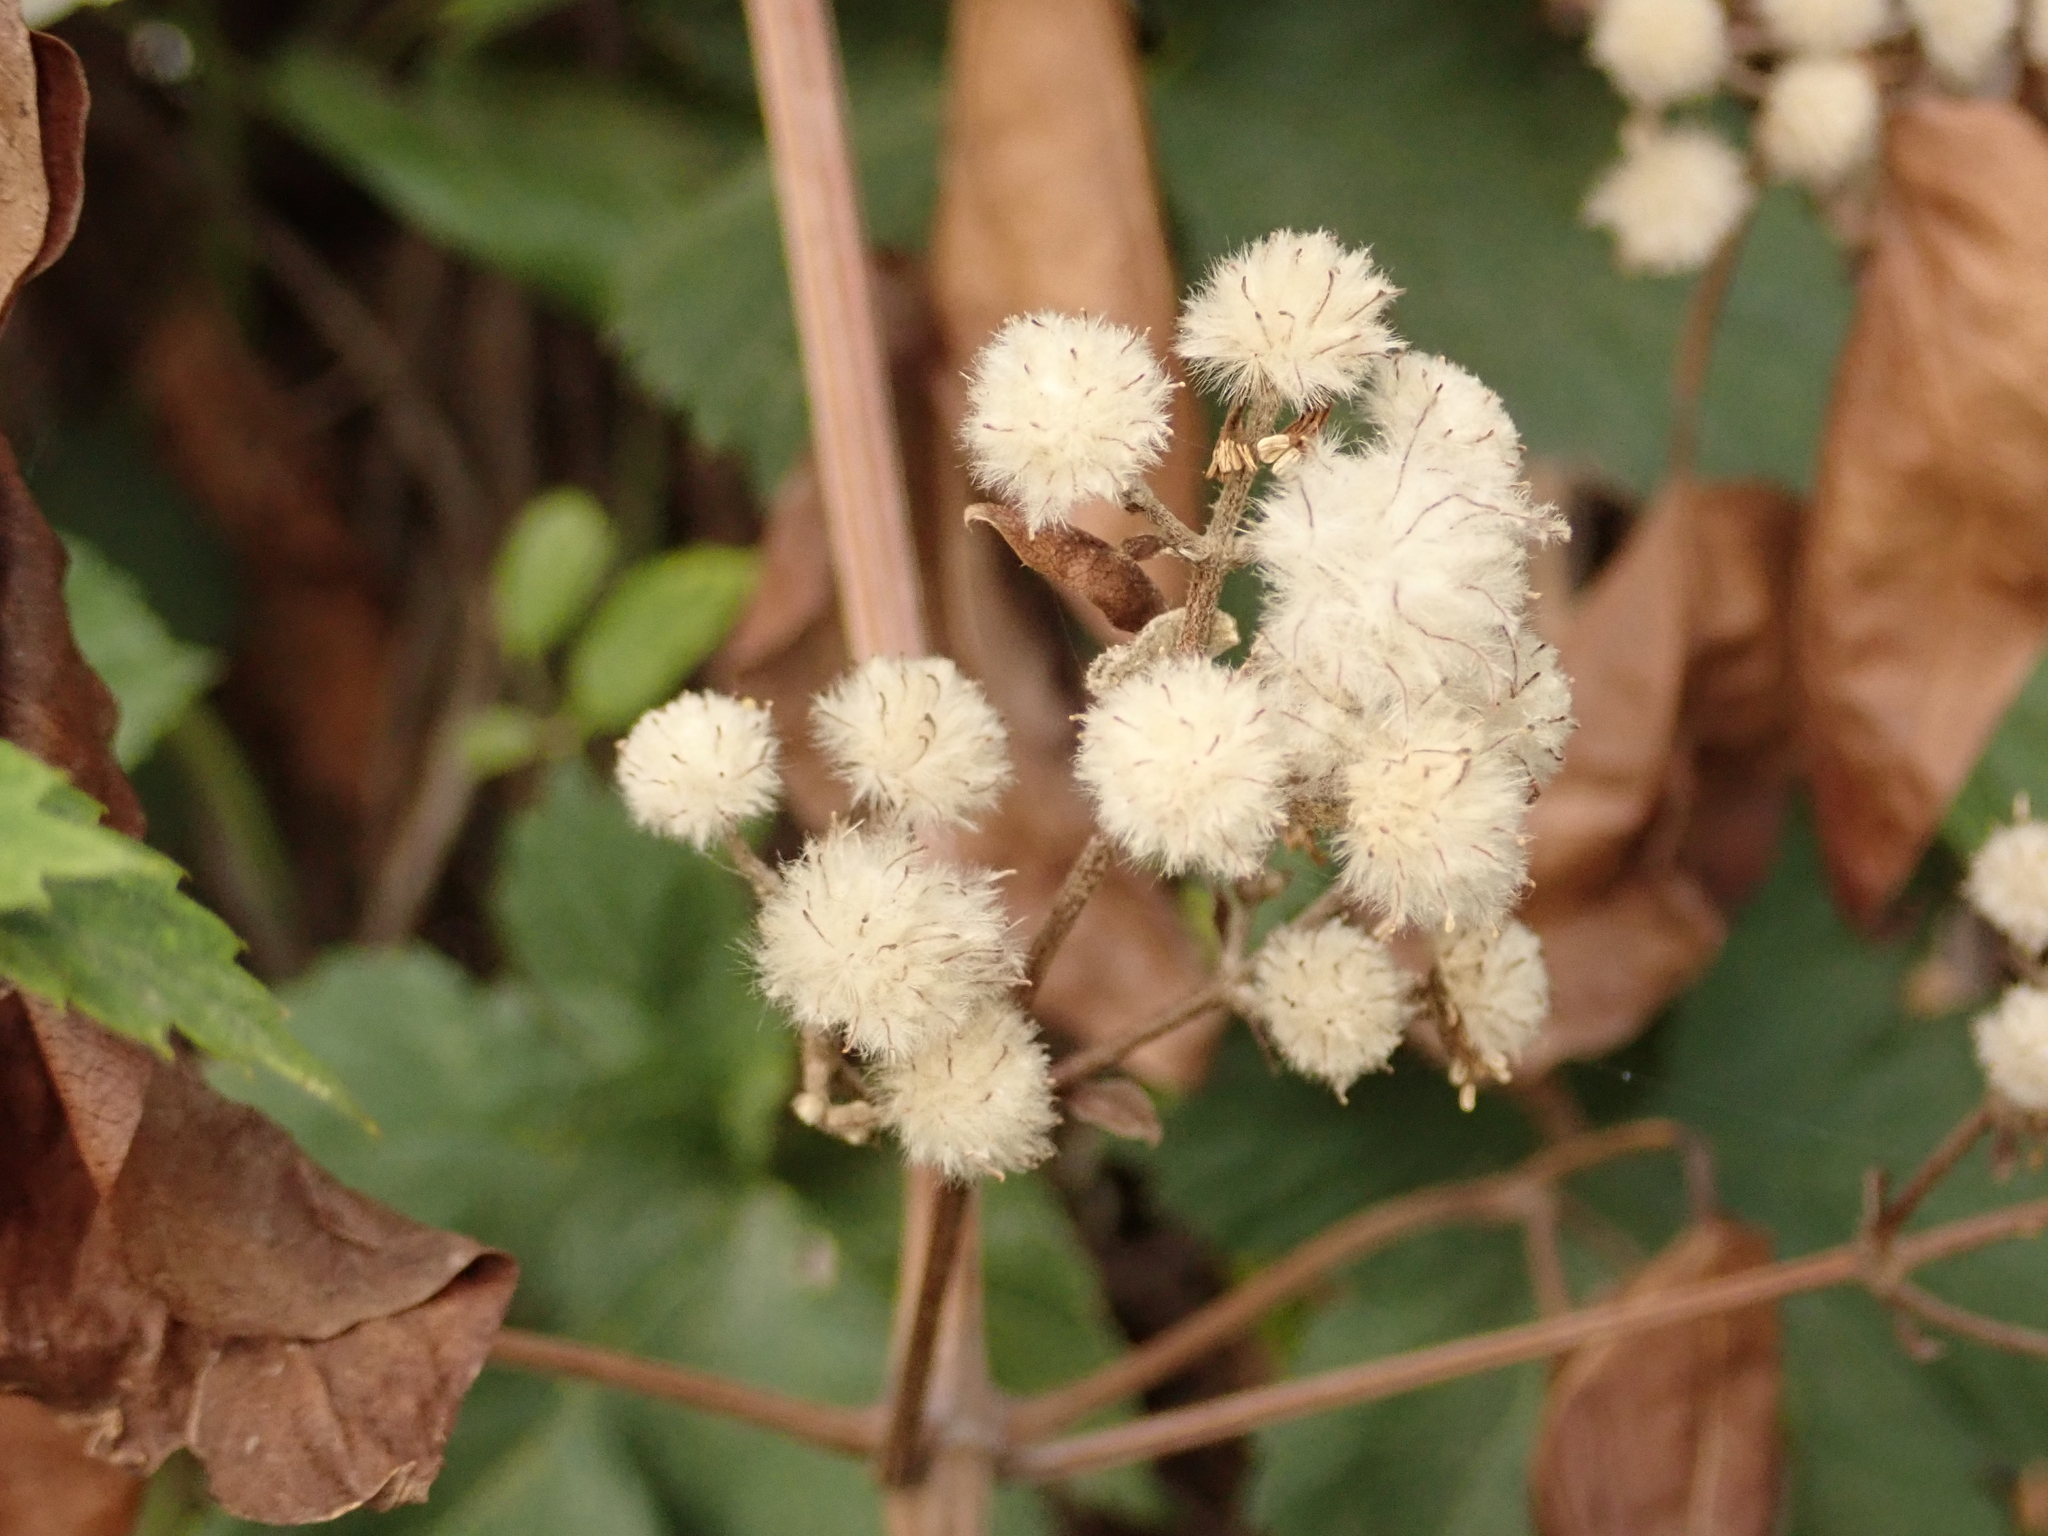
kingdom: Plantae
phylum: Tracheophyta
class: Magnoliopsida
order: Ranunculales
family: Ranunculaceae
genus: Clematis
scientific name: Clematis vitalba
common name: Evergreen clematis
